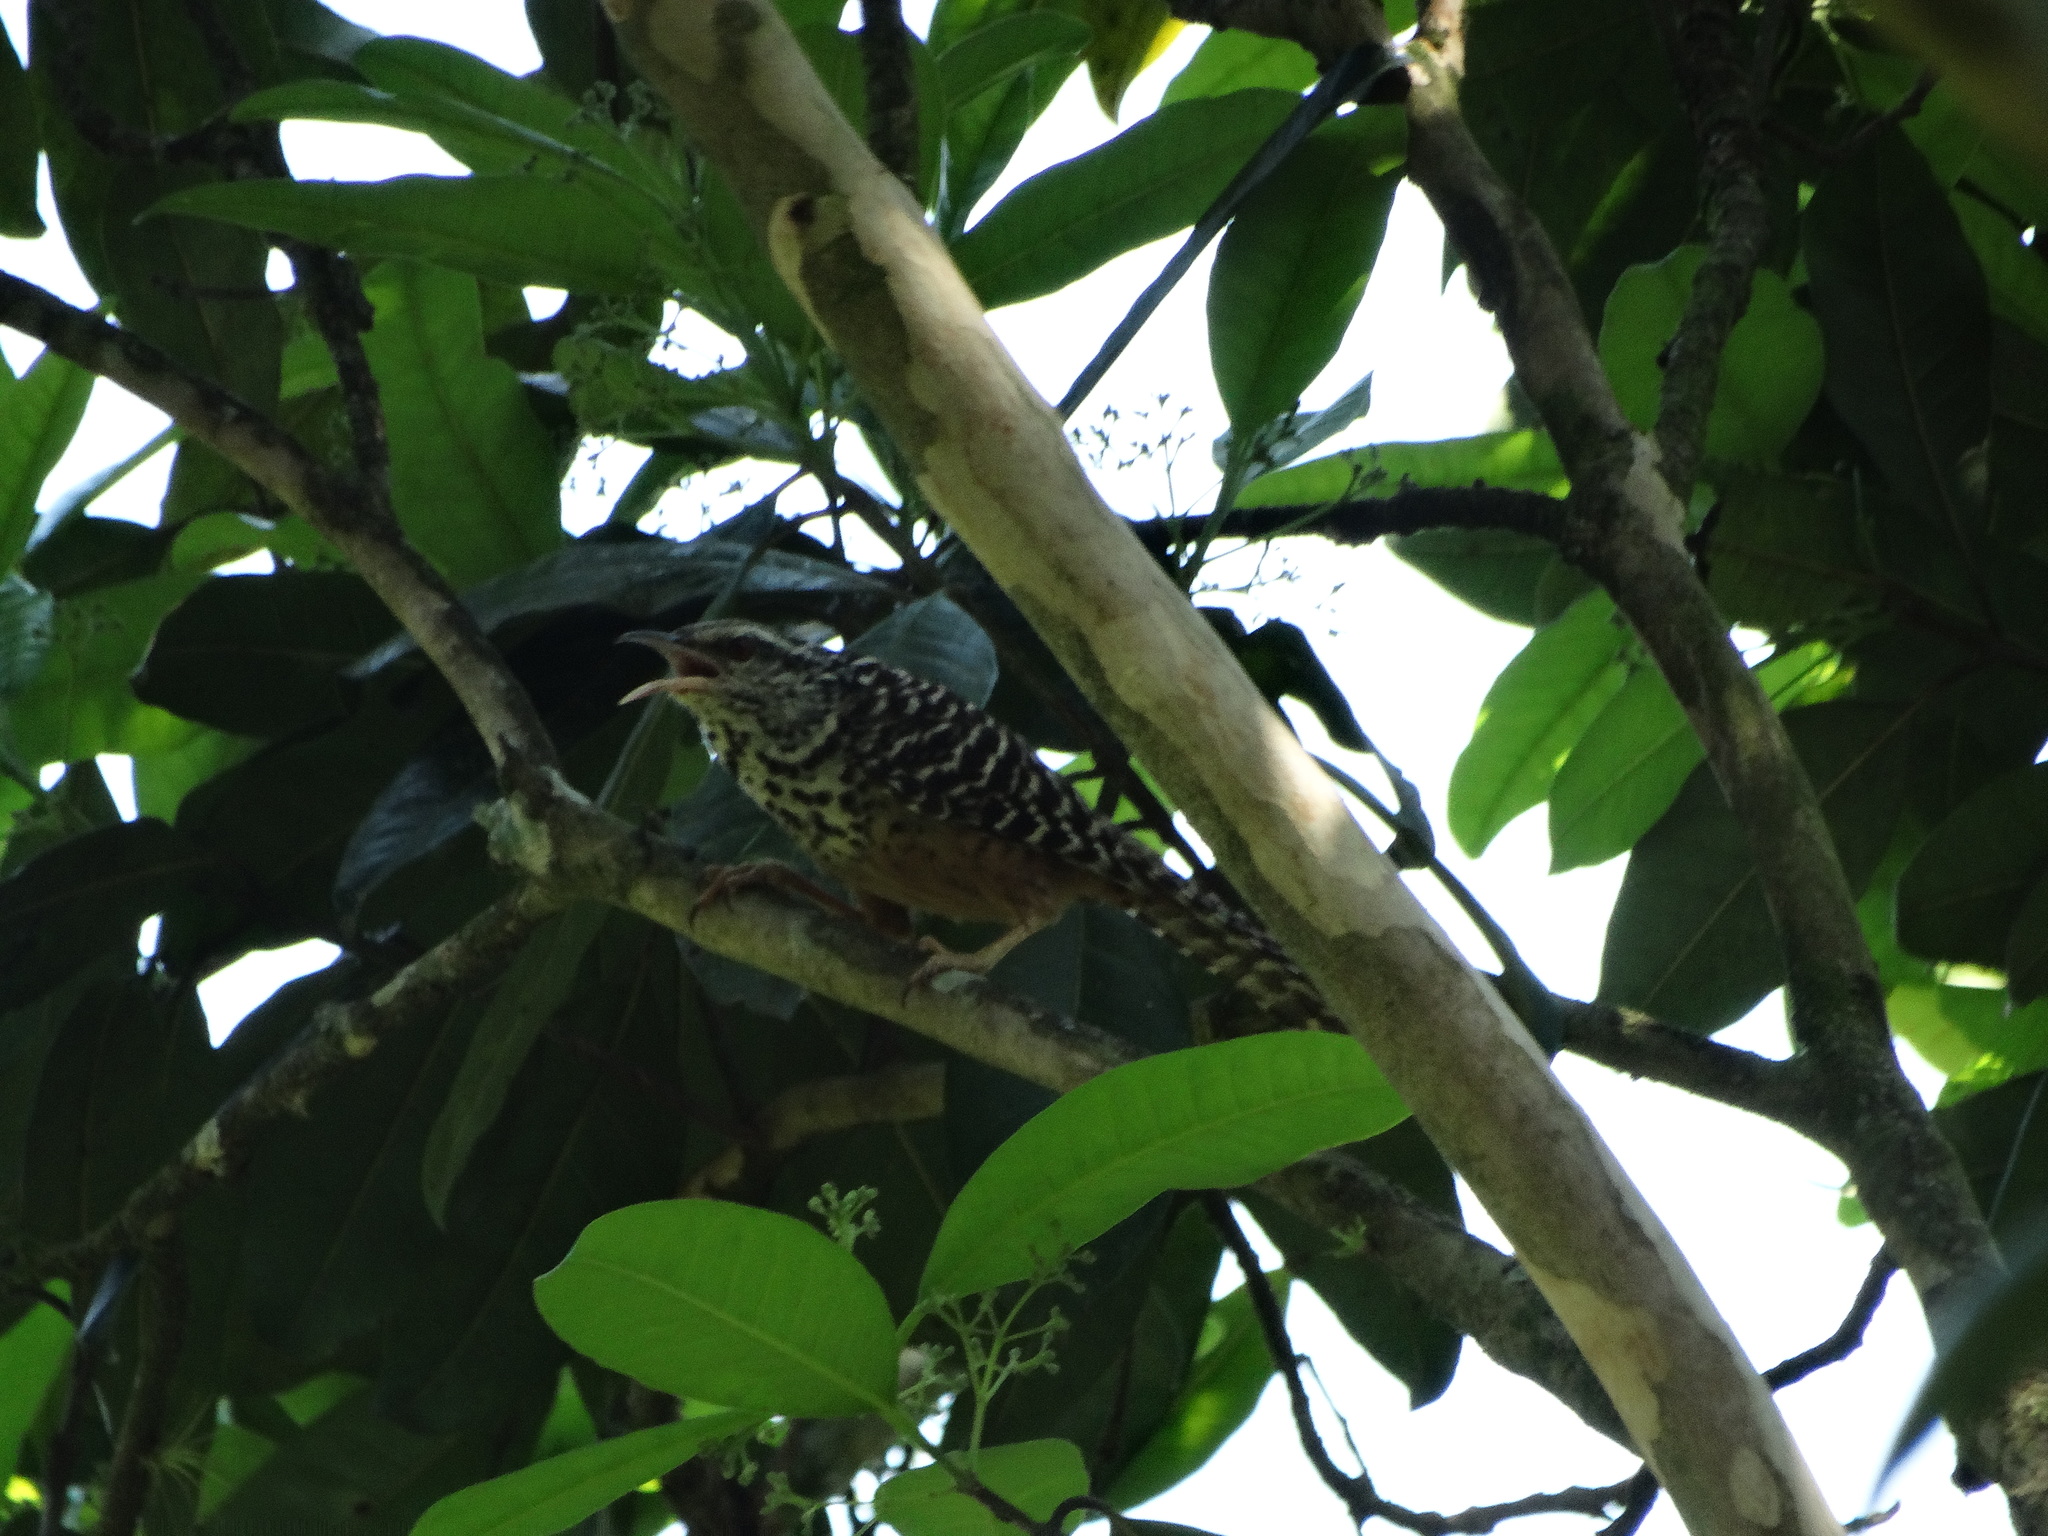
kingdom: Animalia
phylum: Chordata
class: Aves
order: Passeriformes
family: Troglodytidae
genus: Campylorhynchus
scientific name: Campylorhynchus zonatus
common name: Band-backed wren
